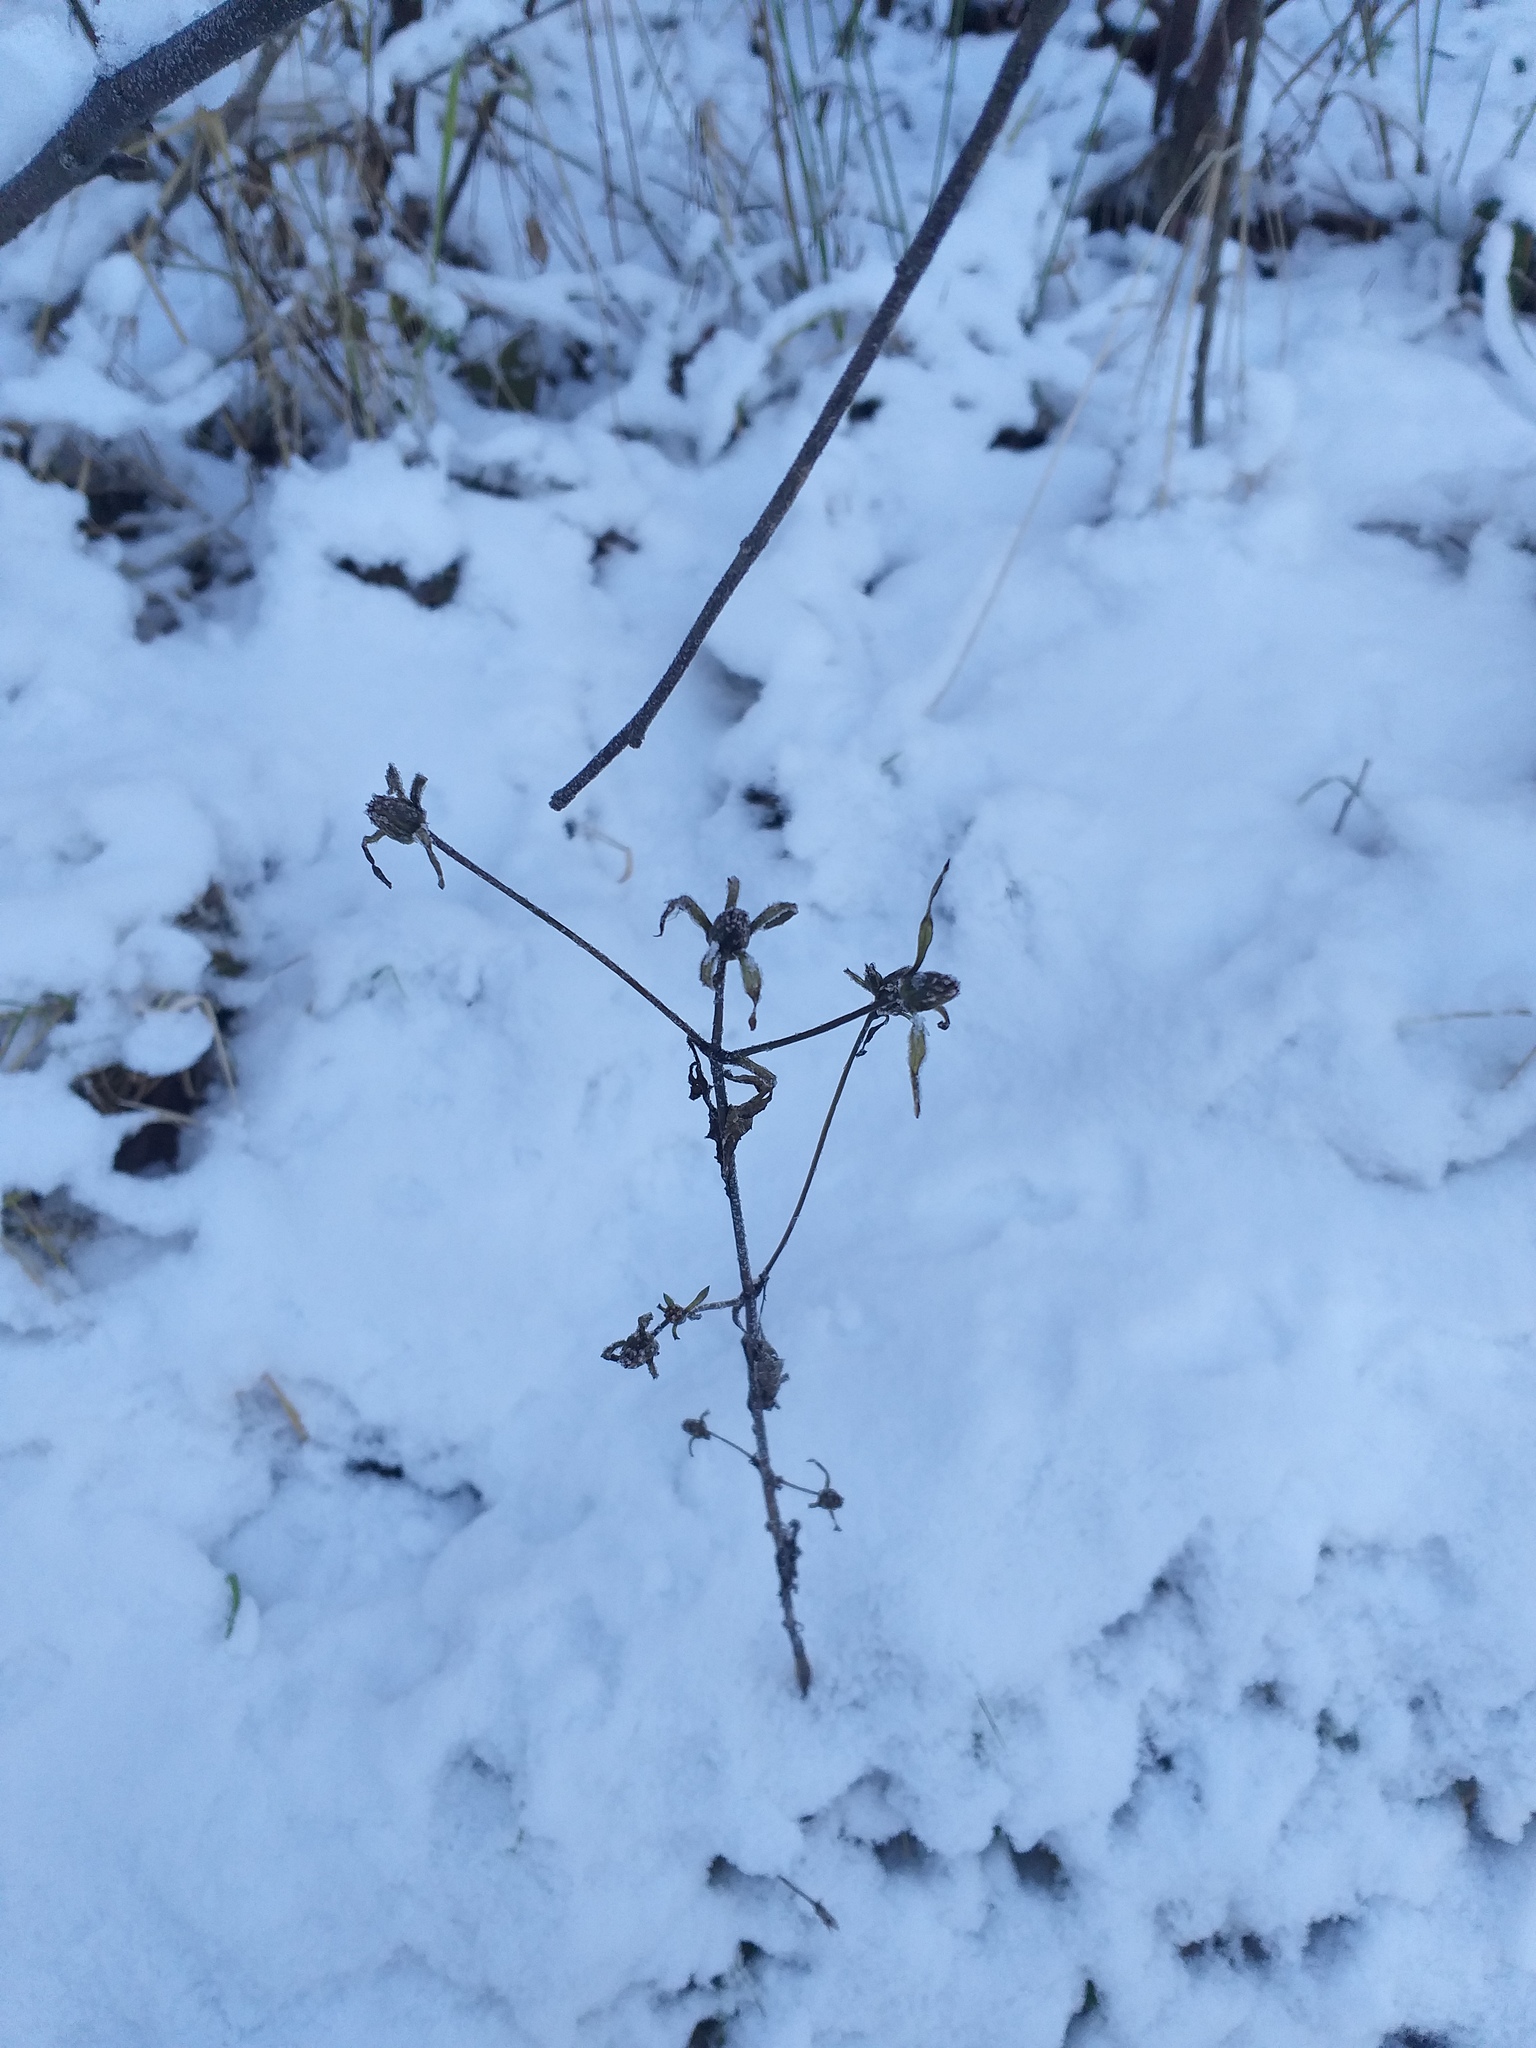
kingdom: Plantae
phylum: Tracheophyta
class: Magnoliopsida
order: Asterales
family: Asteraceae
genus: Bidens
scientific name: Bidens frondosa
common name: Beggarticks
